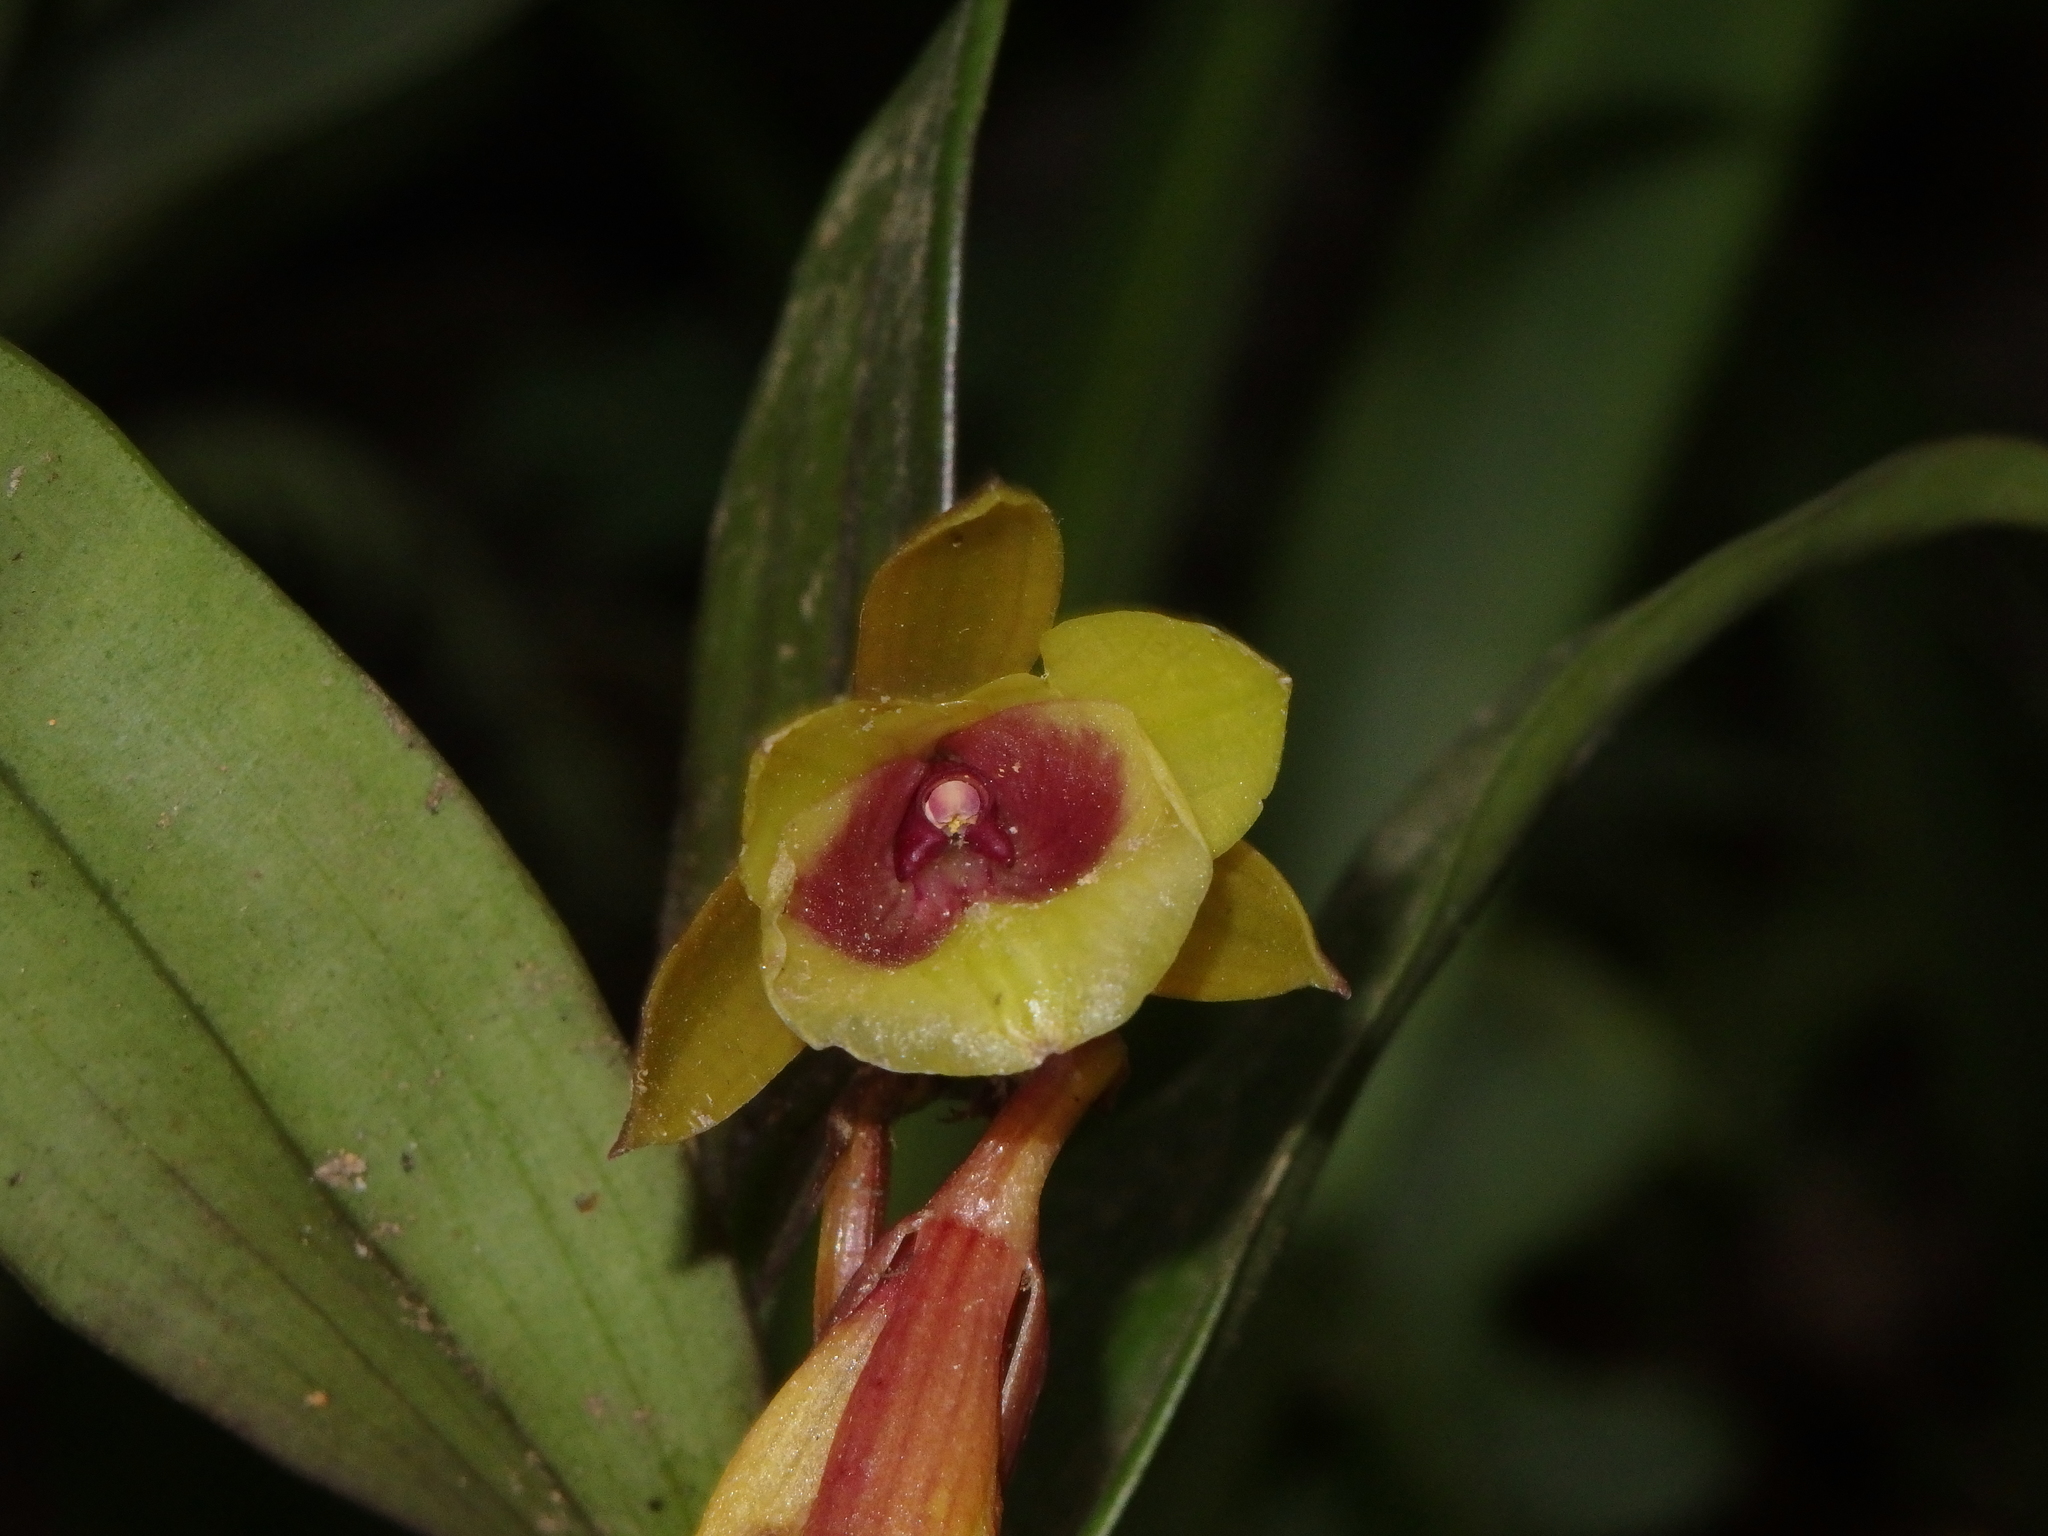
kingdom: Plantae
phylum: Tracheophyta
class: Liliopsida
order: Asparagales
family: Orchidaceae
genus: Epidendrum
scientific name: Epidendrum eximium
